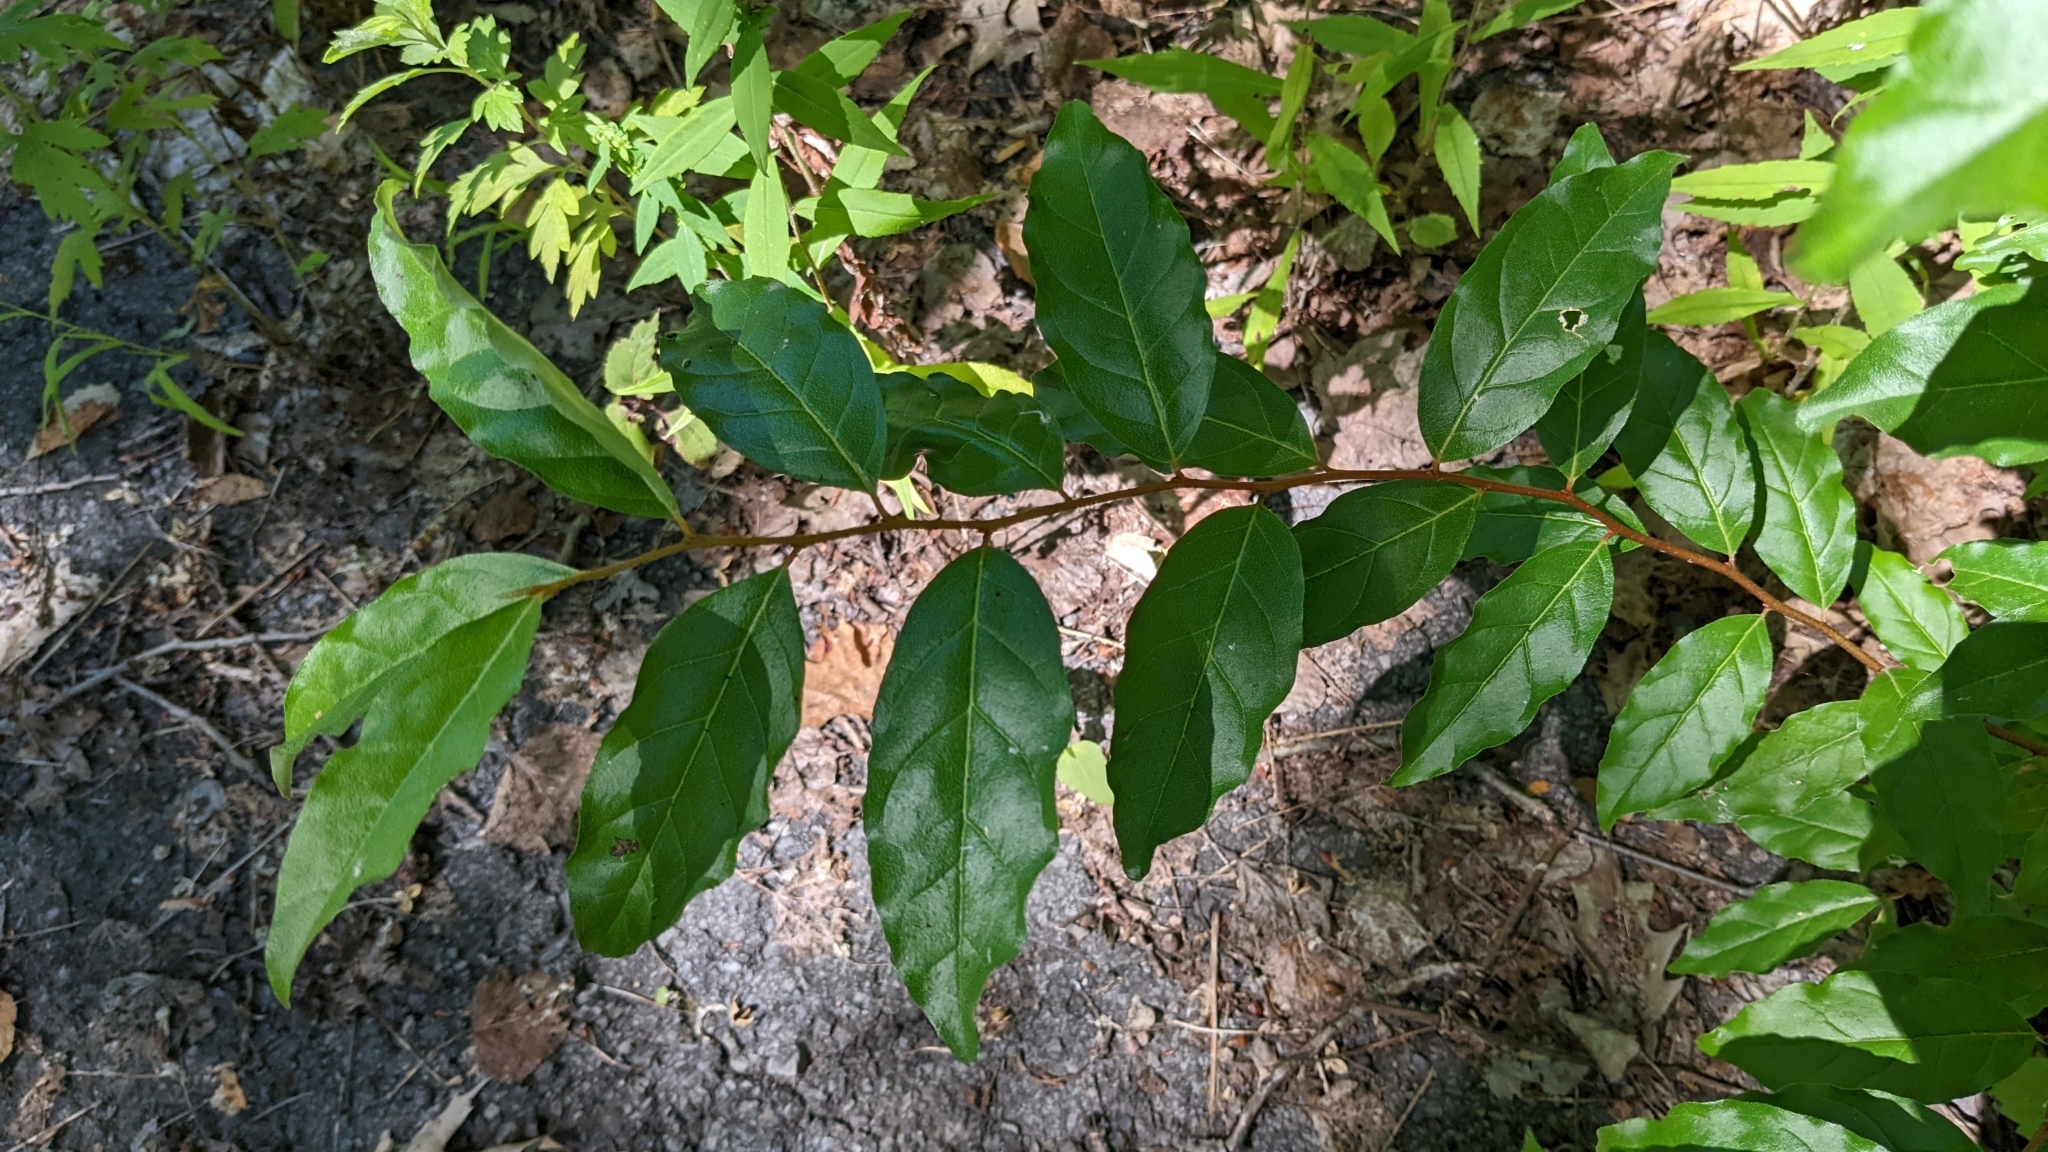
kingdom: Plantae
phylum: Tracheophyta
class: Magnoliopsida
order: Rosales
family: Elaeagnaceae
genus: Elaeagnus
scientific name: Elaeagnus umbellata
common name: Autumn olive
